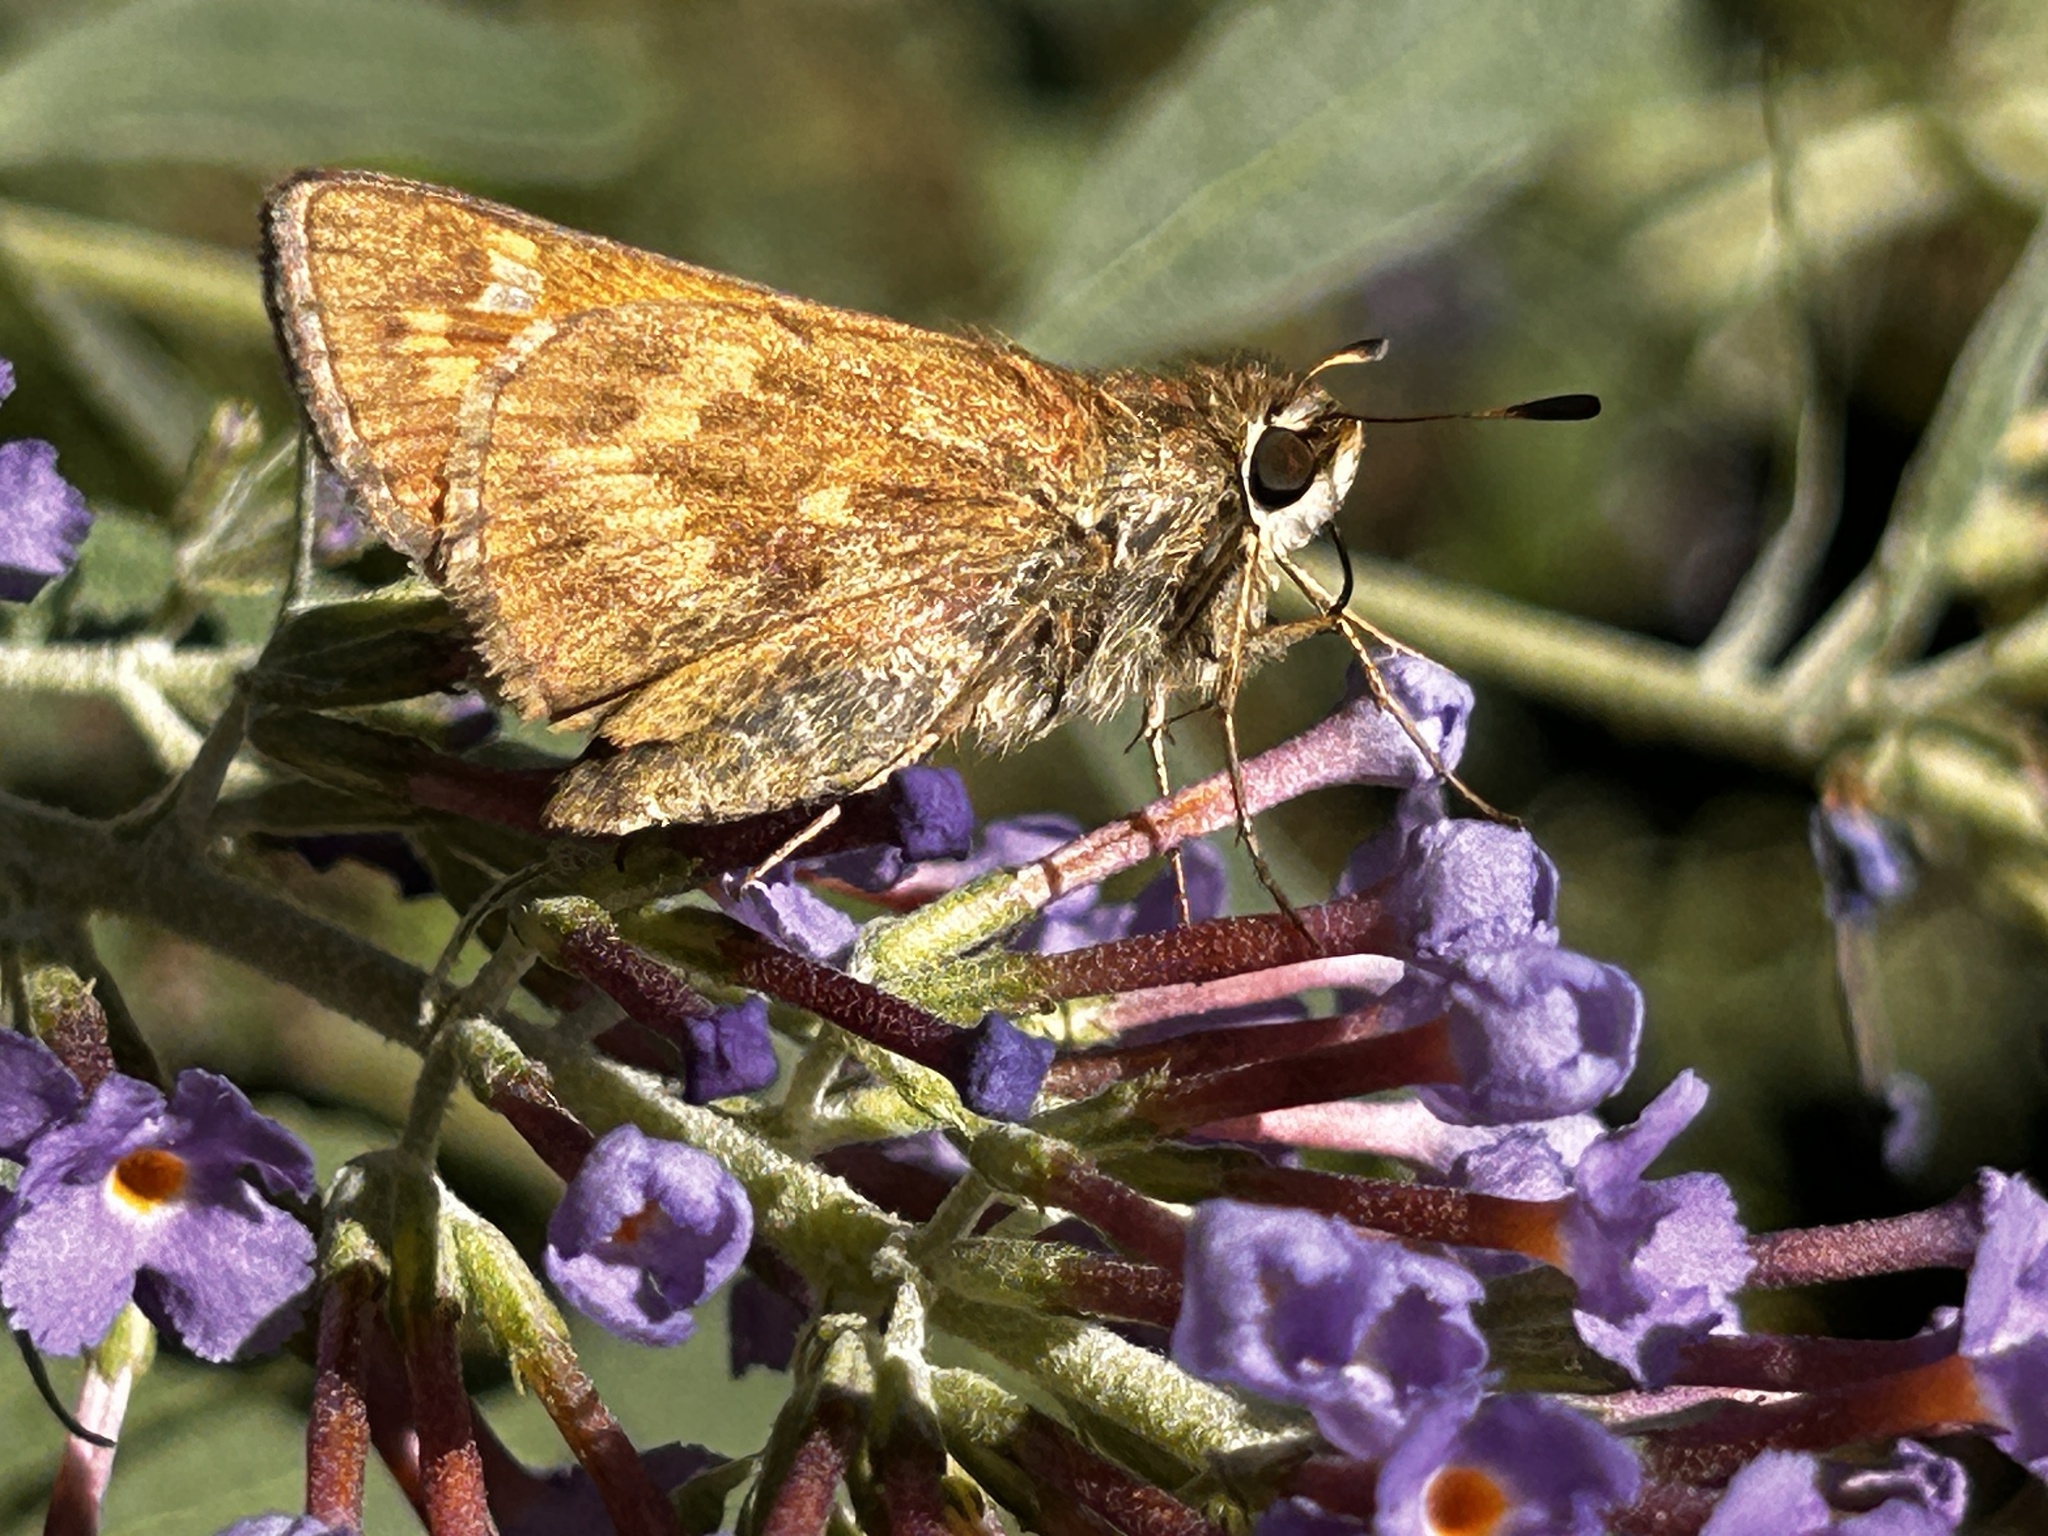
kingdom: Animalia
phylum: Arthropoda
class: Insecta
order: Lepidoptera
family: Hesperiidae
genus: Atalopedes
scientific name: Atalopedes
